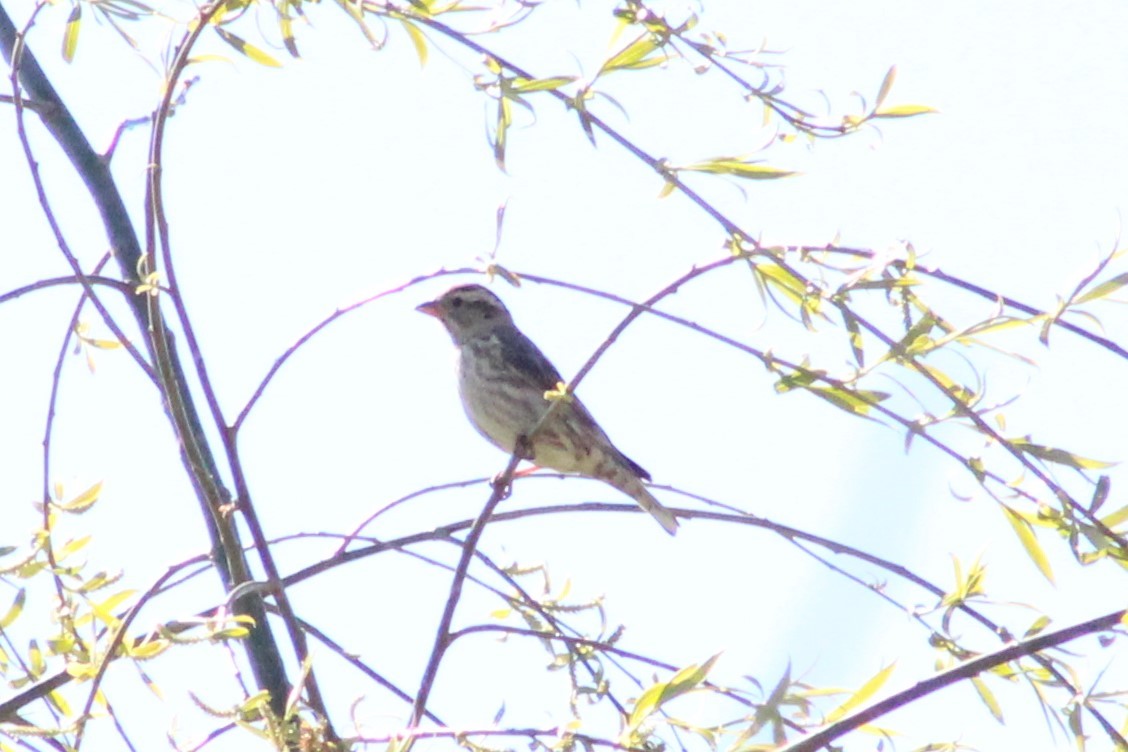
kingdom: Animalia
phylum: Chordata
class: Aves
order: Passeriformes
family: Passeridae
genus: Petronia
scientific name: Petronia petronia
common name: Rock sparrow
